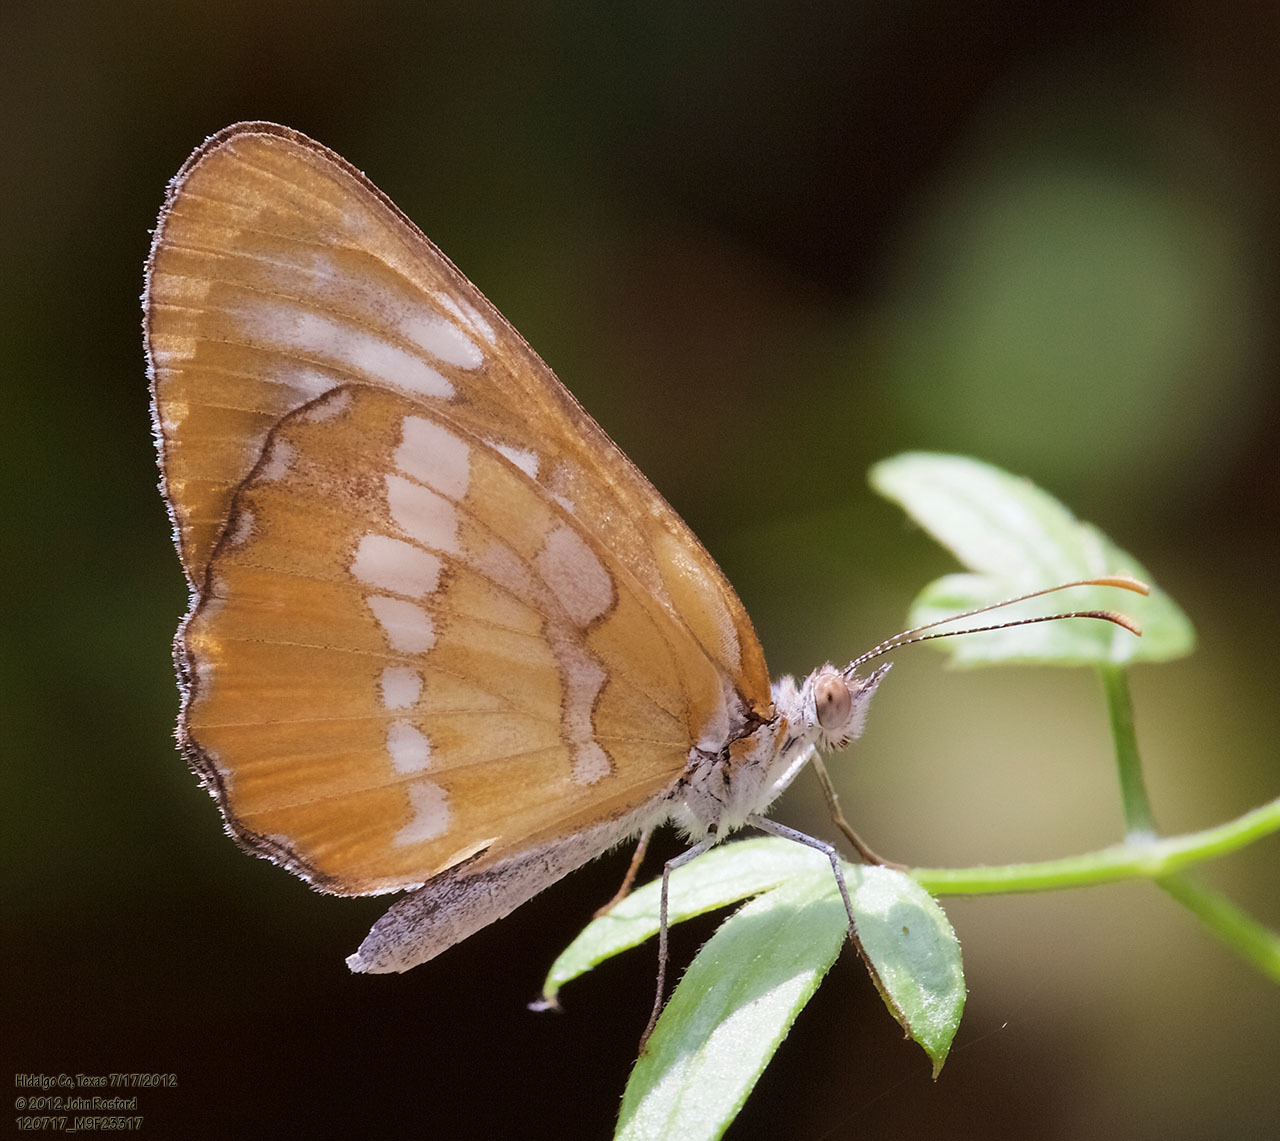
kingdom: Animalia
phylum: Arthropoda
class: Insecta
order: Lepidoptera
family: Nymphalidae
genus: Mestra
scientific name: Mestra amymone
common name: Common mestra
